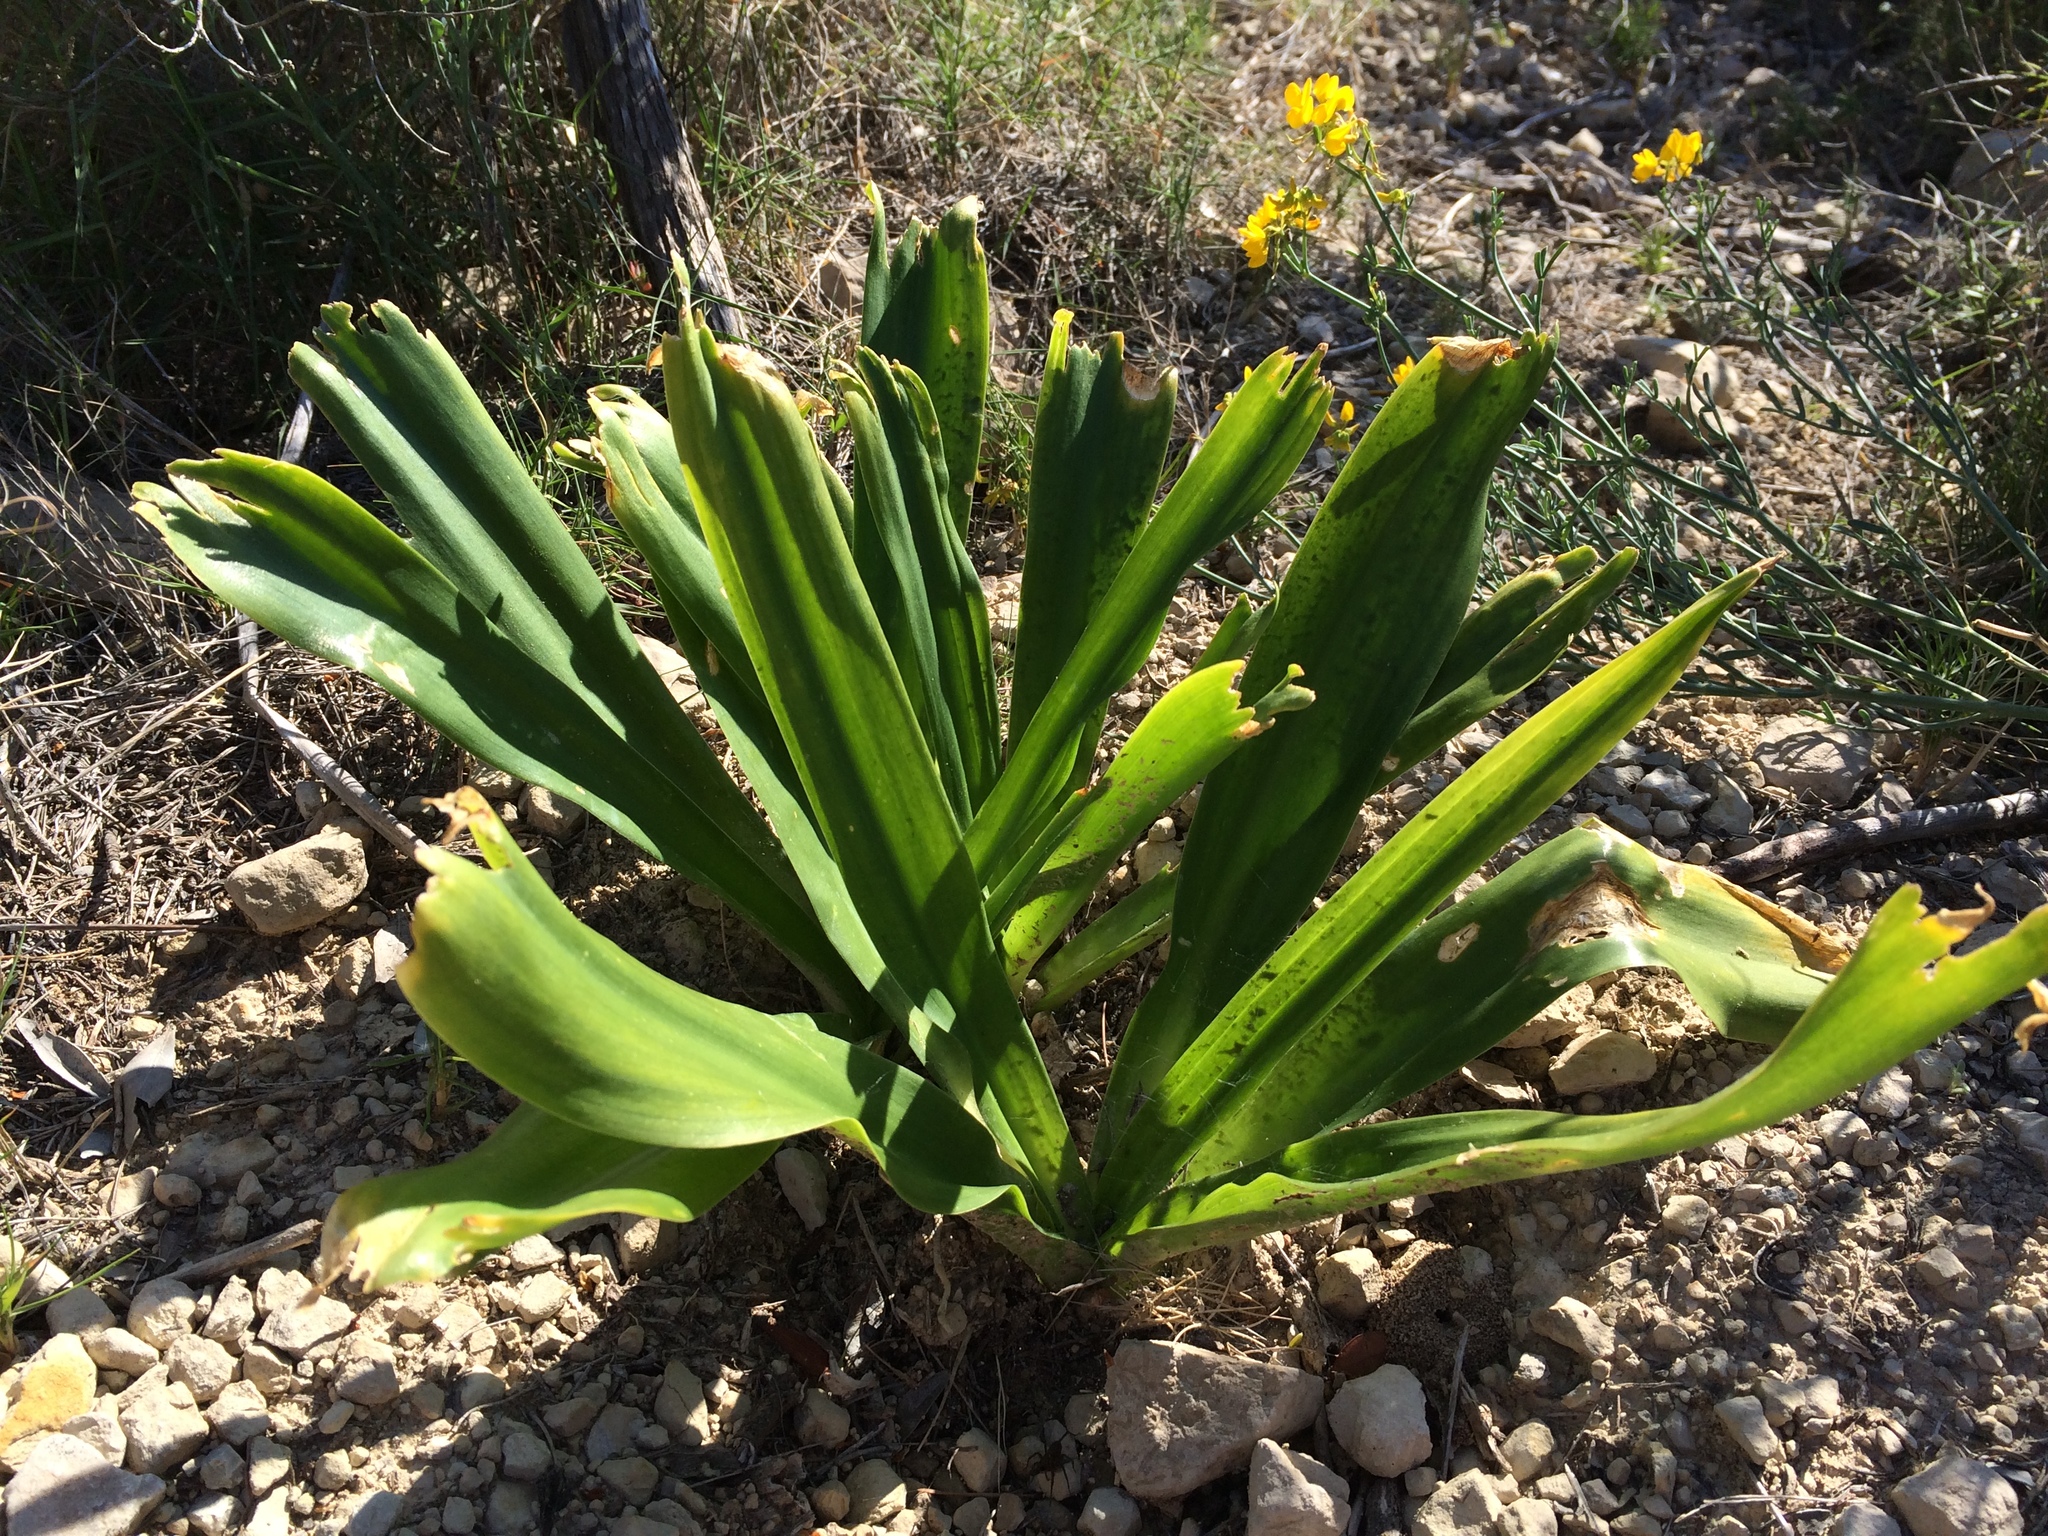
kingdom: Plantae
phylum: Tracheophyta
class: Liliopsida
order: Asparagales
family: Asparagaceae
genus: Drimia
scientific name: Drimia maritima
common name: Maritime squill
